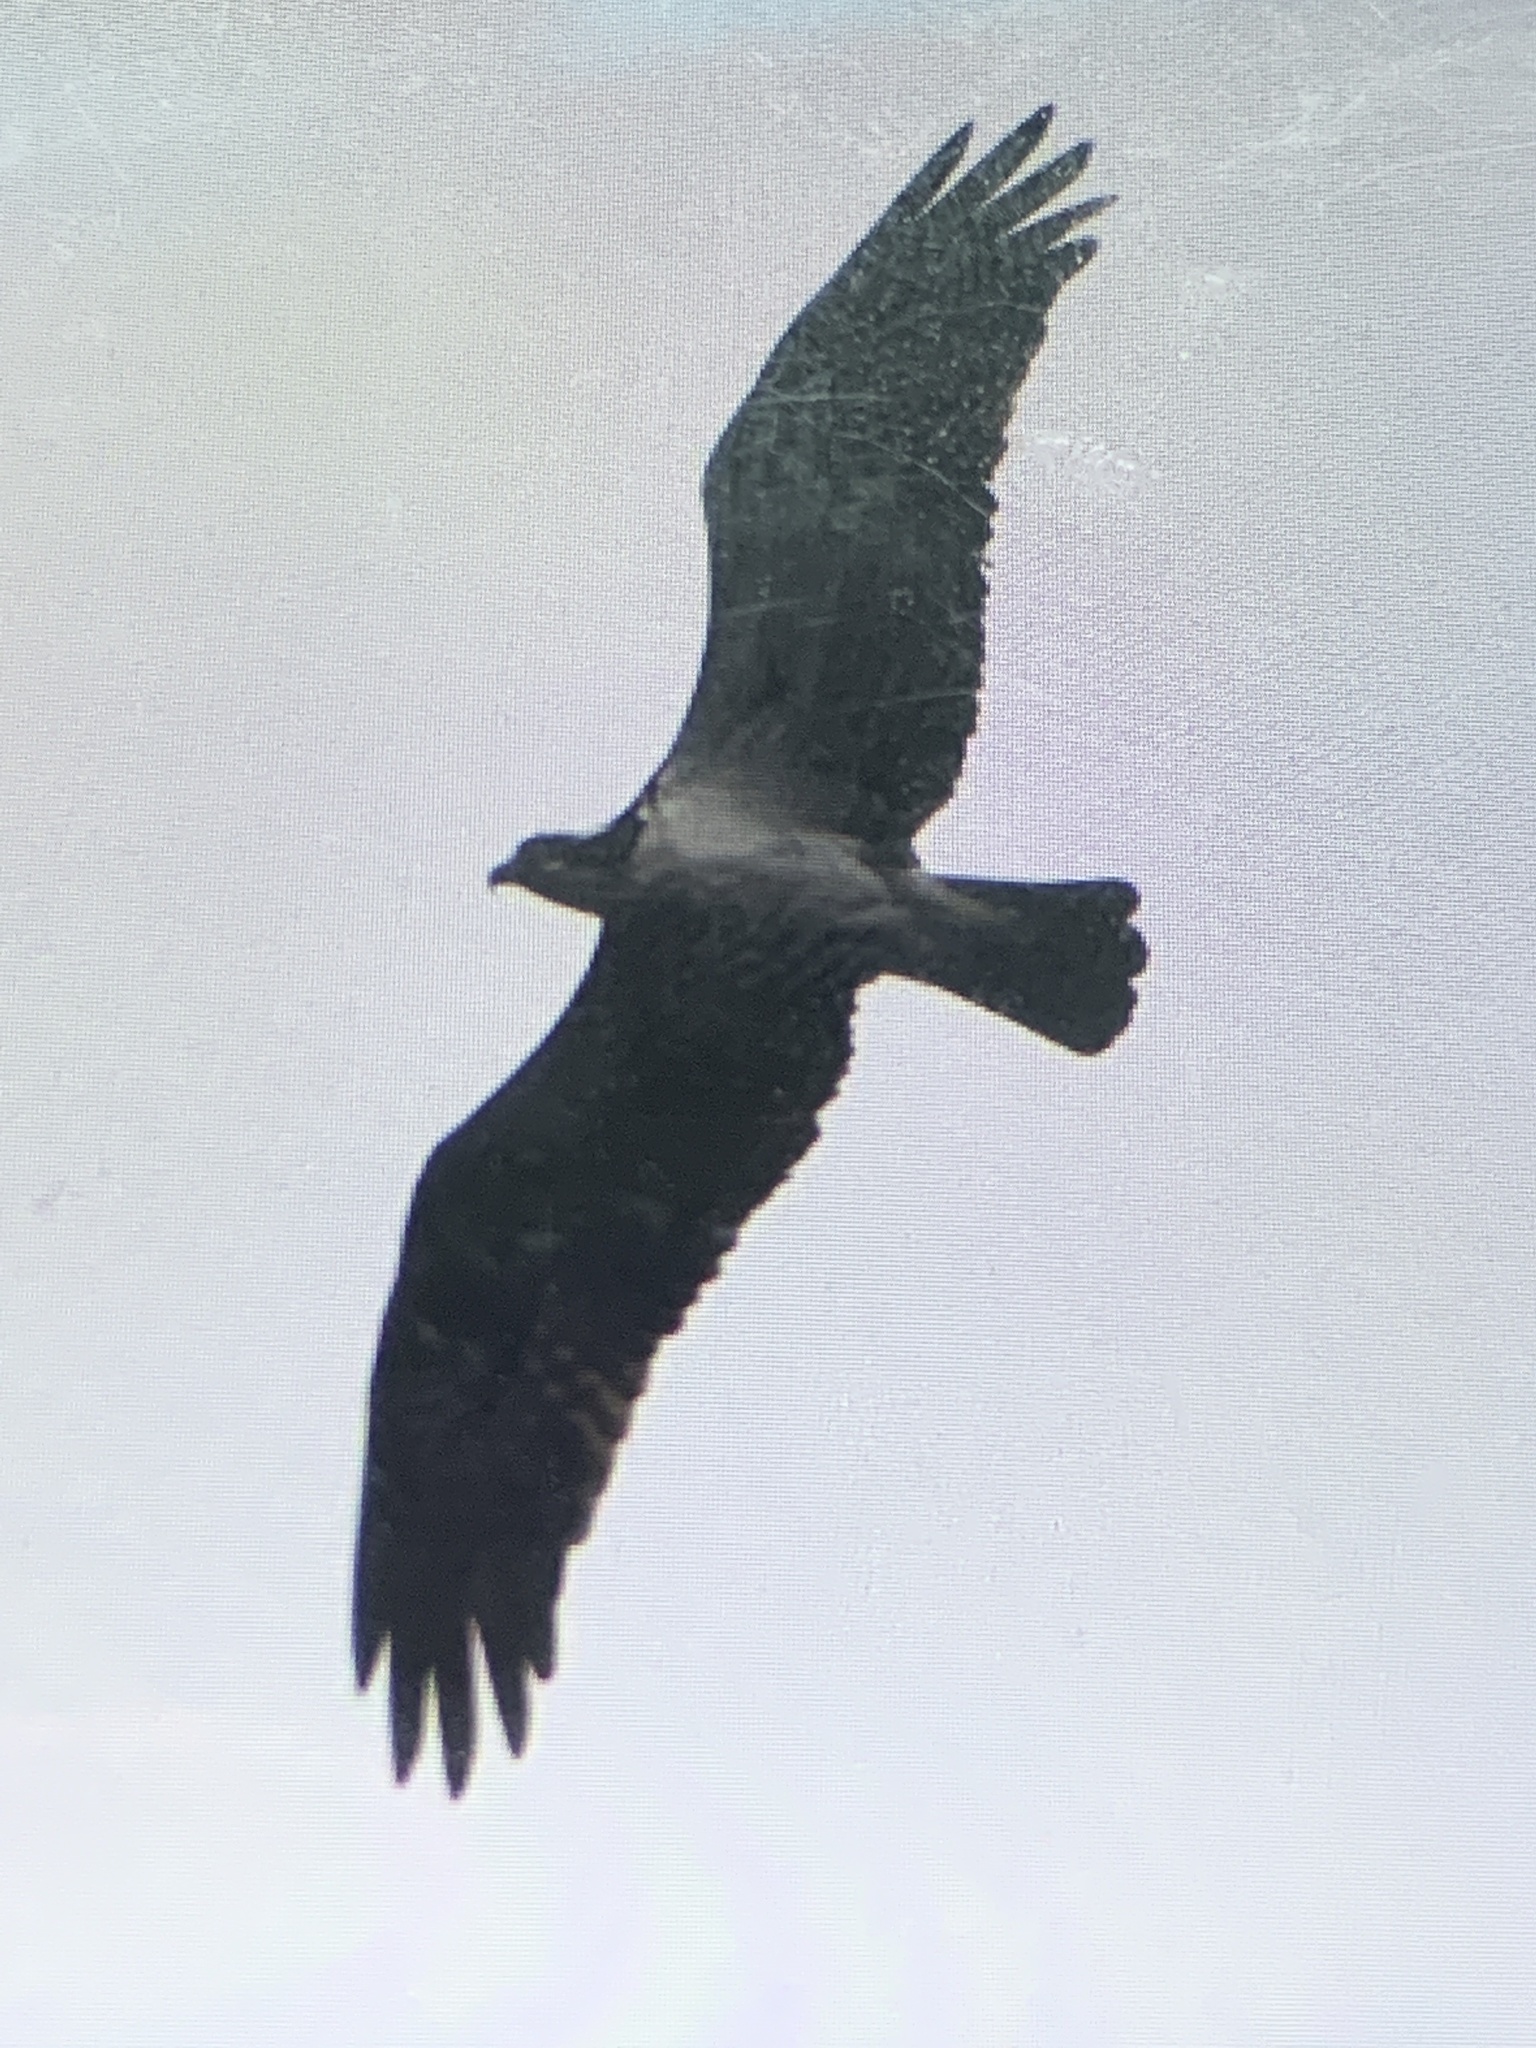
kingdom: Animalia
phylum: Chordata
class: Aves
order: Accipitriformes
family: Pandionidae
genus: Pandion
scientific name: Pandion haliaetus
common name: Osprey
